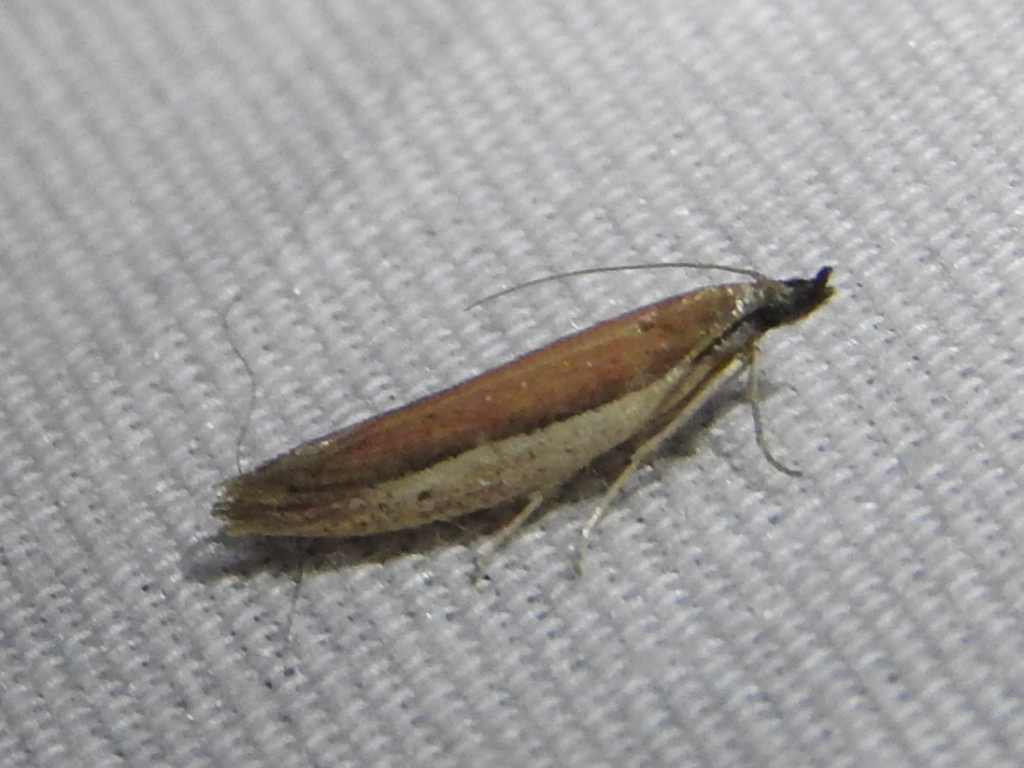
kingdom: Animalia
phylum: Arthropoda
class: Insecta
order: Lepidoptera
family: Pyralidae
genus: Tampa
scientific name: Tampa dimediatella
